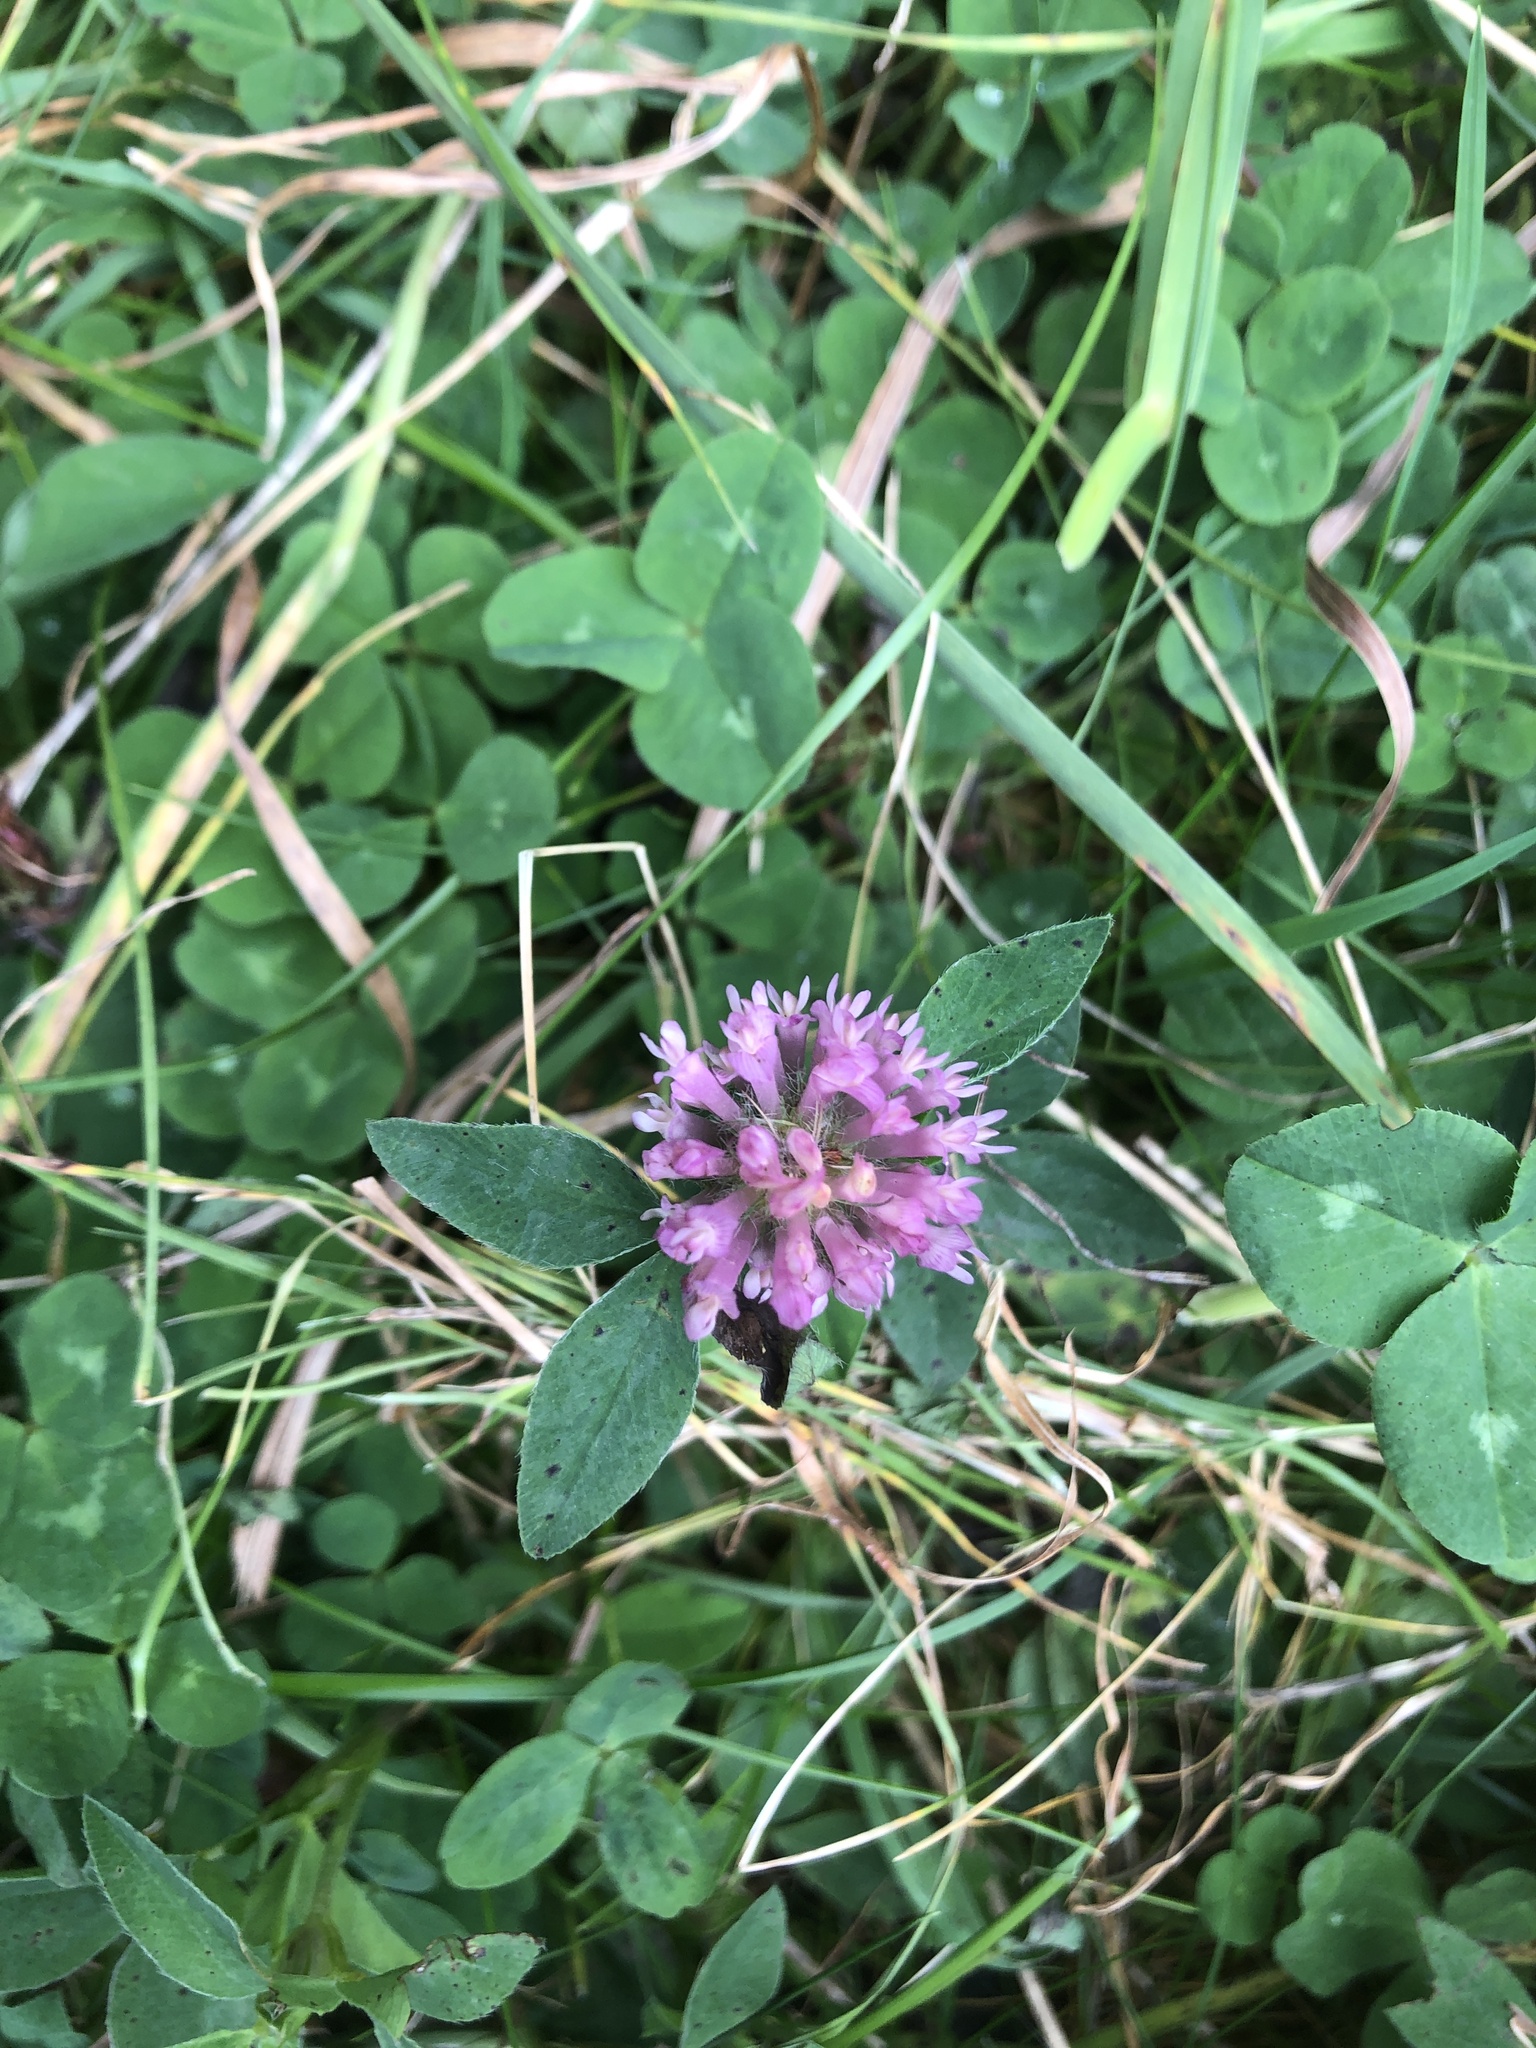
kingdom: Plantae
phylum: Tracheophyta
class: Magnoliopsida
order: Fabales
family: Fabaceae
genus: Trifolium
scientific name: Trifolium pratense
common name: Red clover
